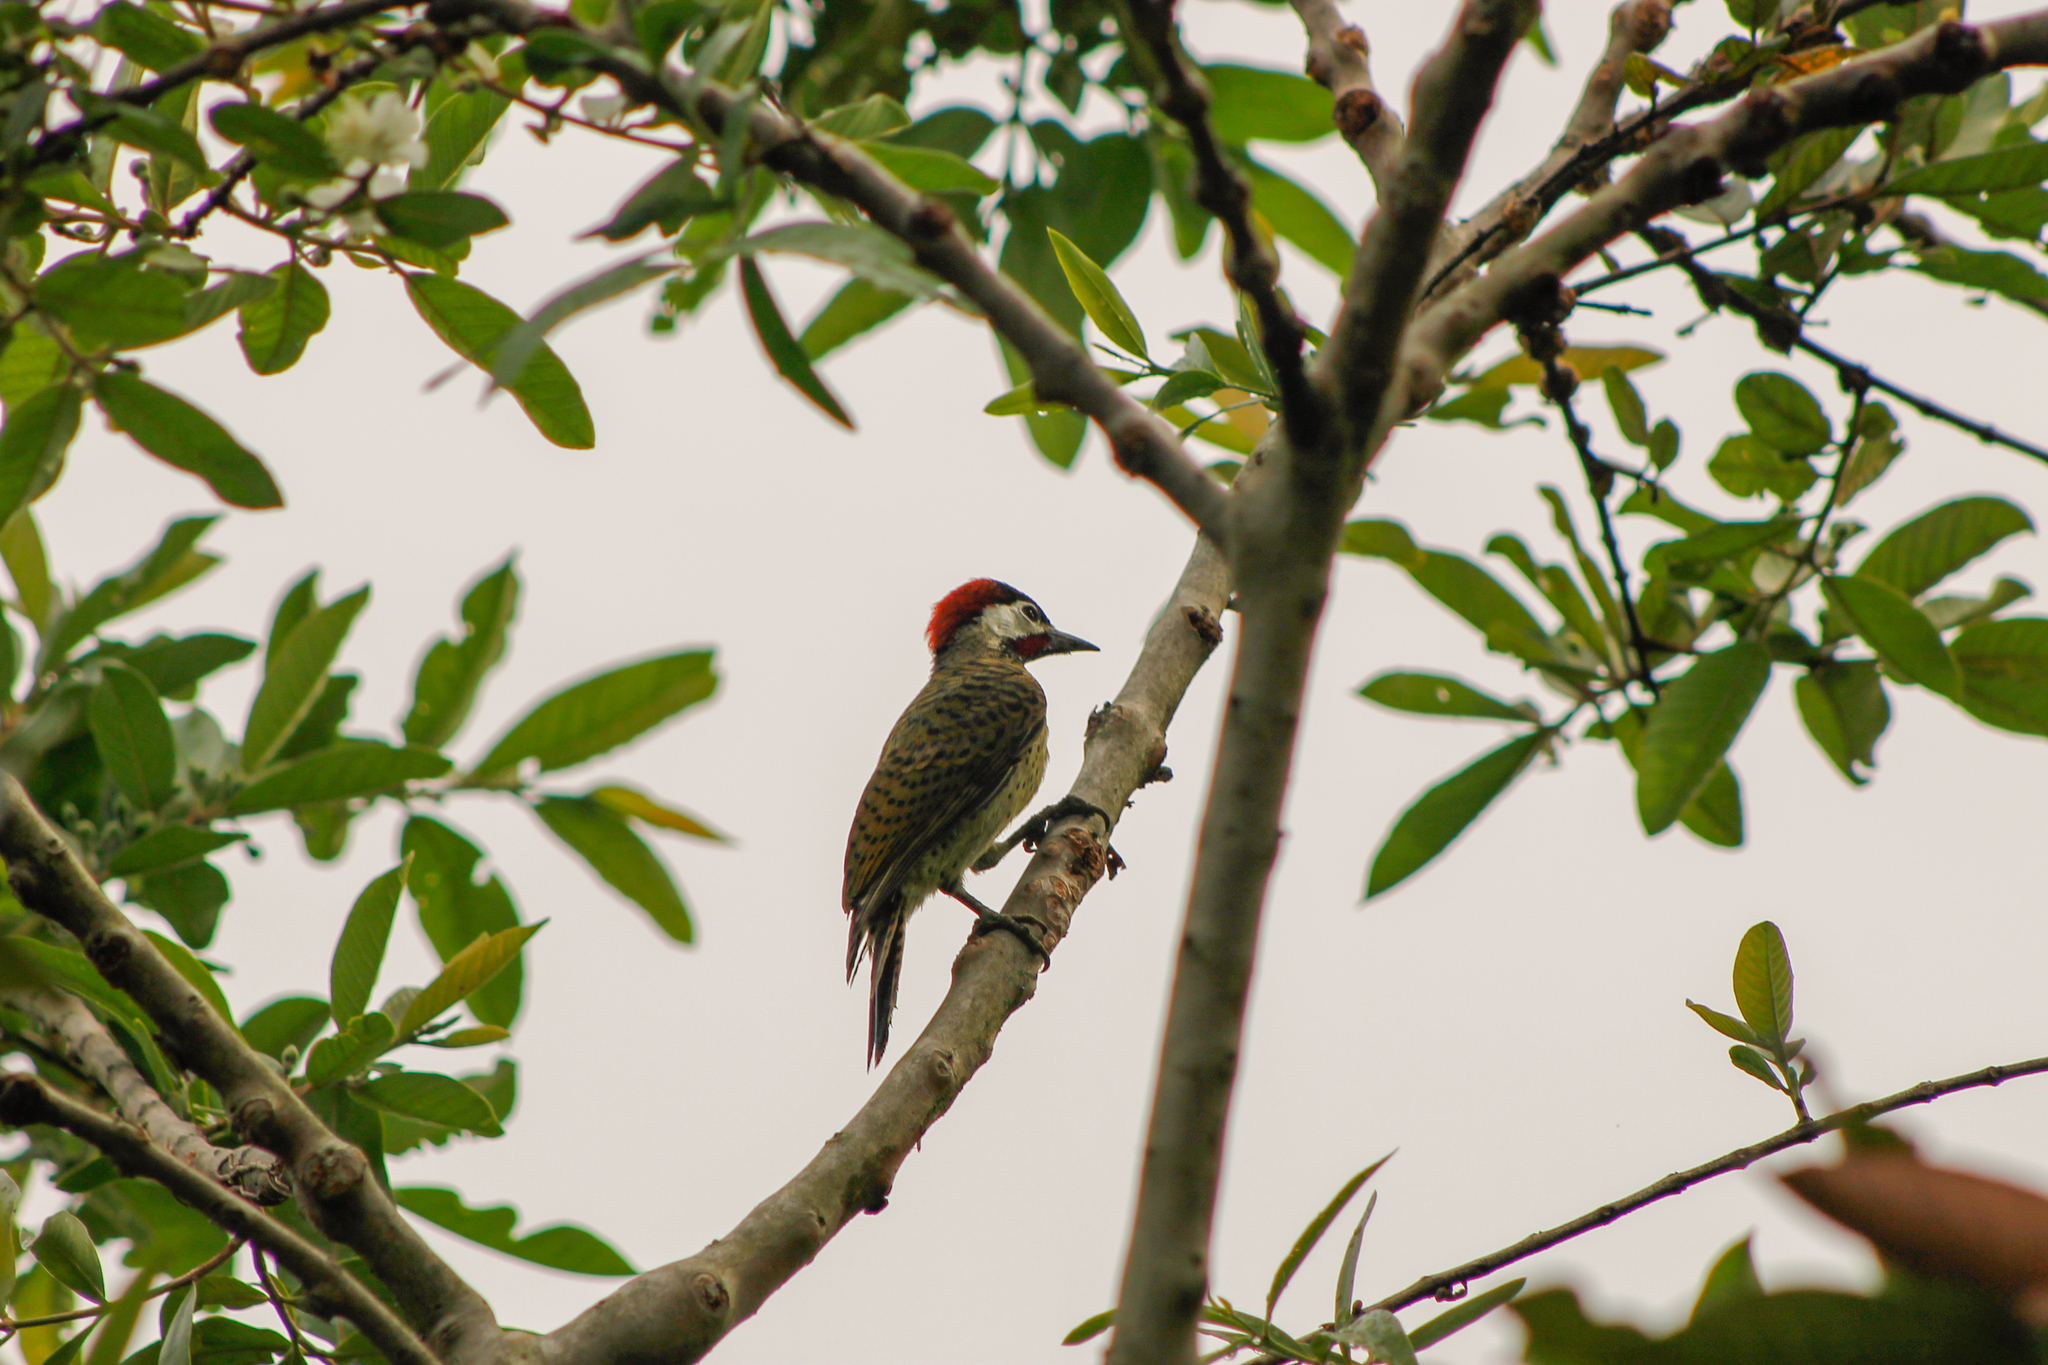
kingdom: Animalia
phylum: Chordata
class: Aves
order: Piciformes
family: Picidae
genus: Colaptes
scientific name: Colaptes punctigula
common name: Spot-breasted woodpecker
